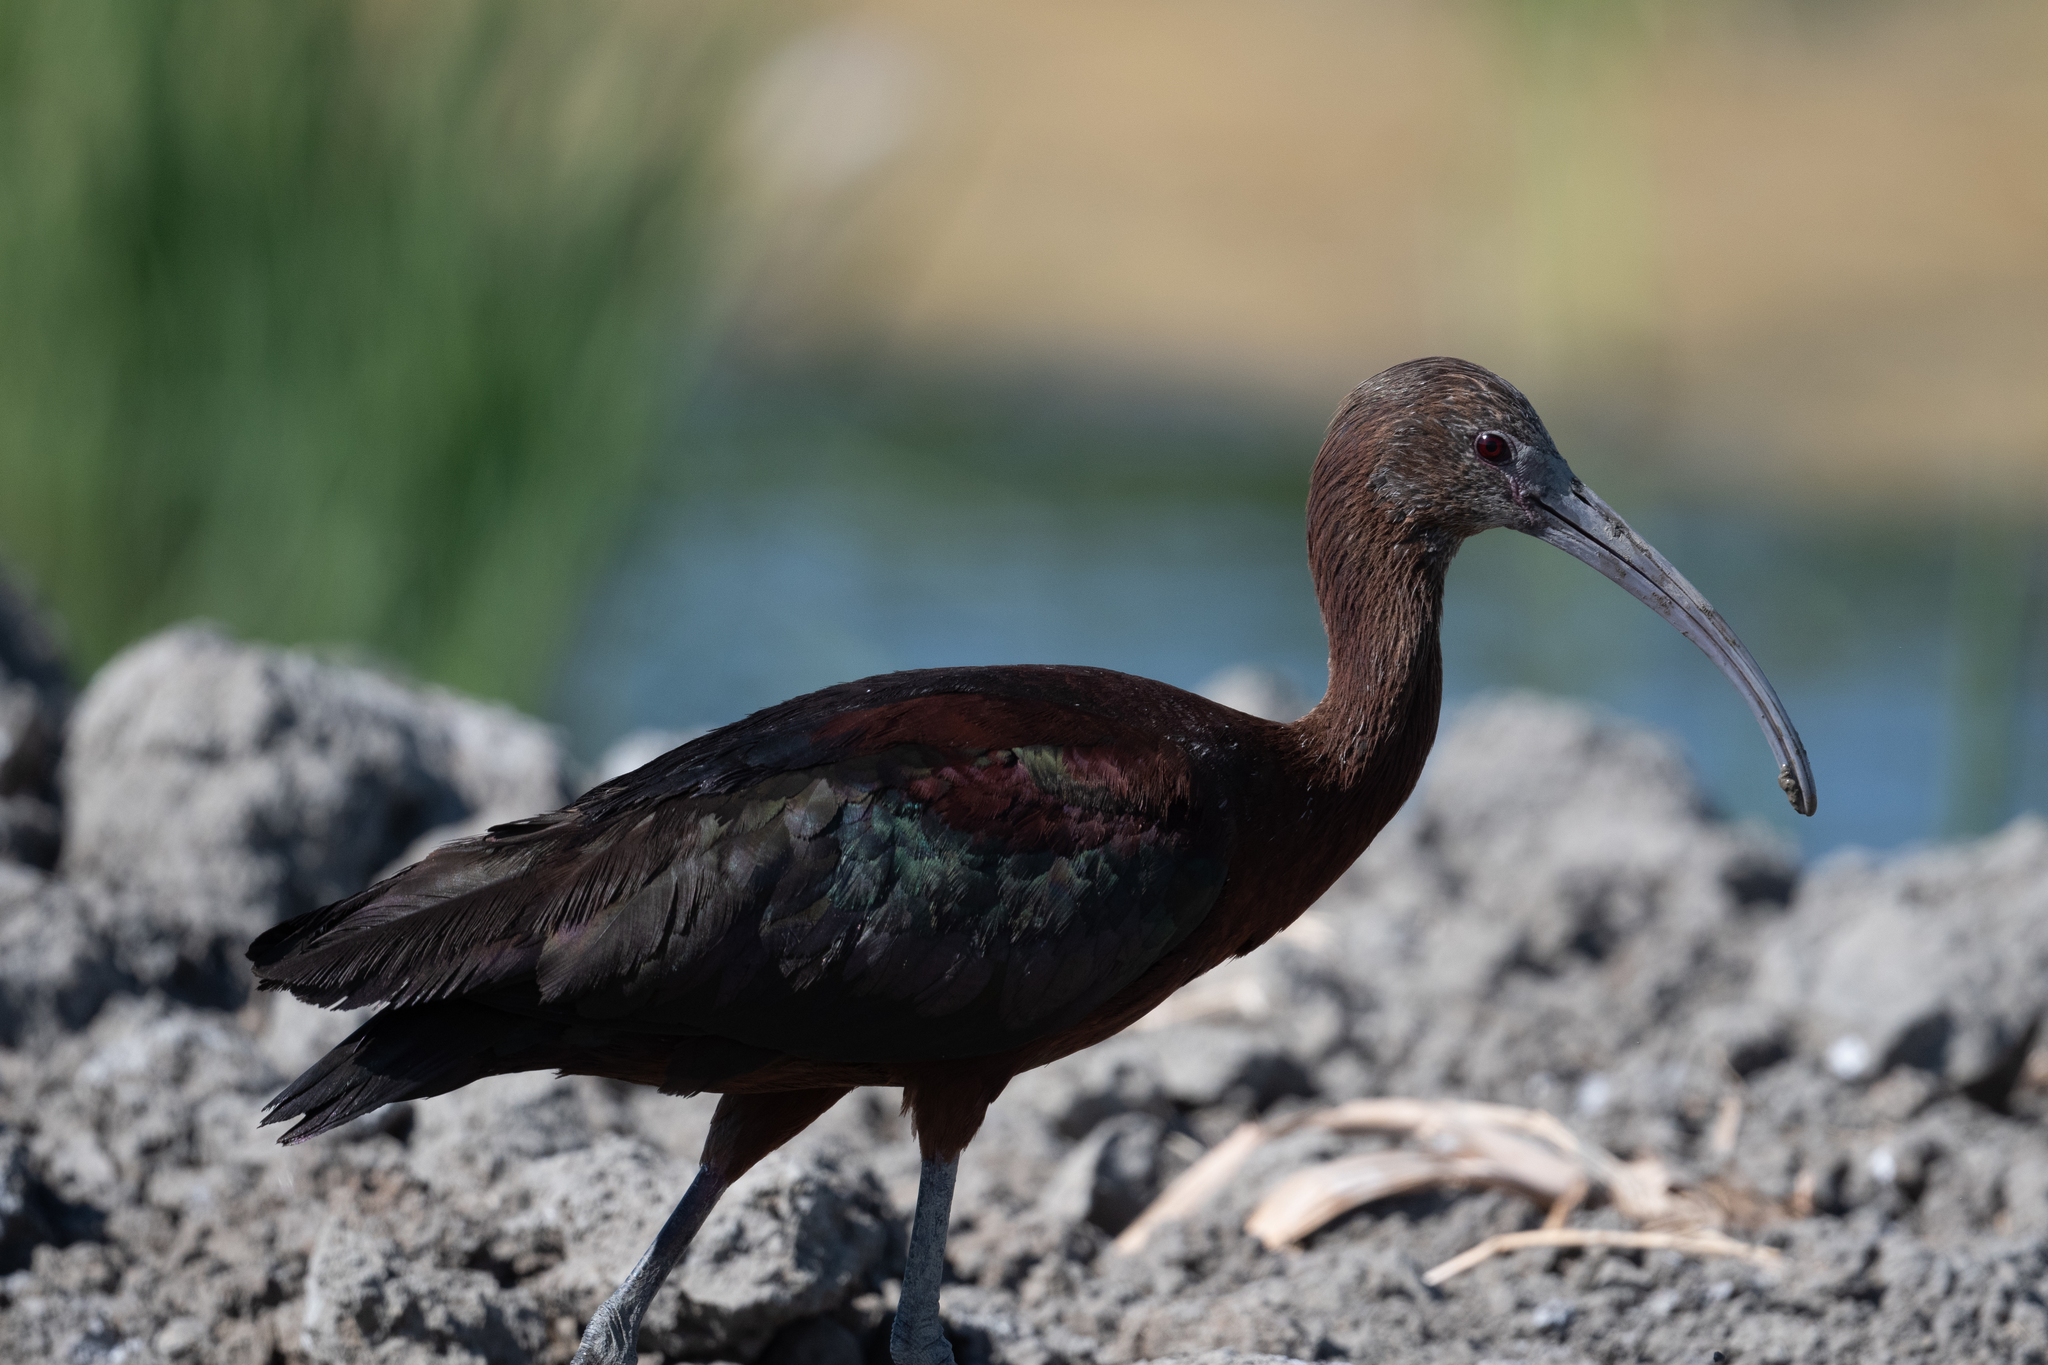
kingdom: Animalia
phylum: Chordata
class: Aves
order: Pelecaniformes
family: Threskiornithidae
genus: Plegadis
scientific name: Plegadis chihi
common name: White-faced ibis
